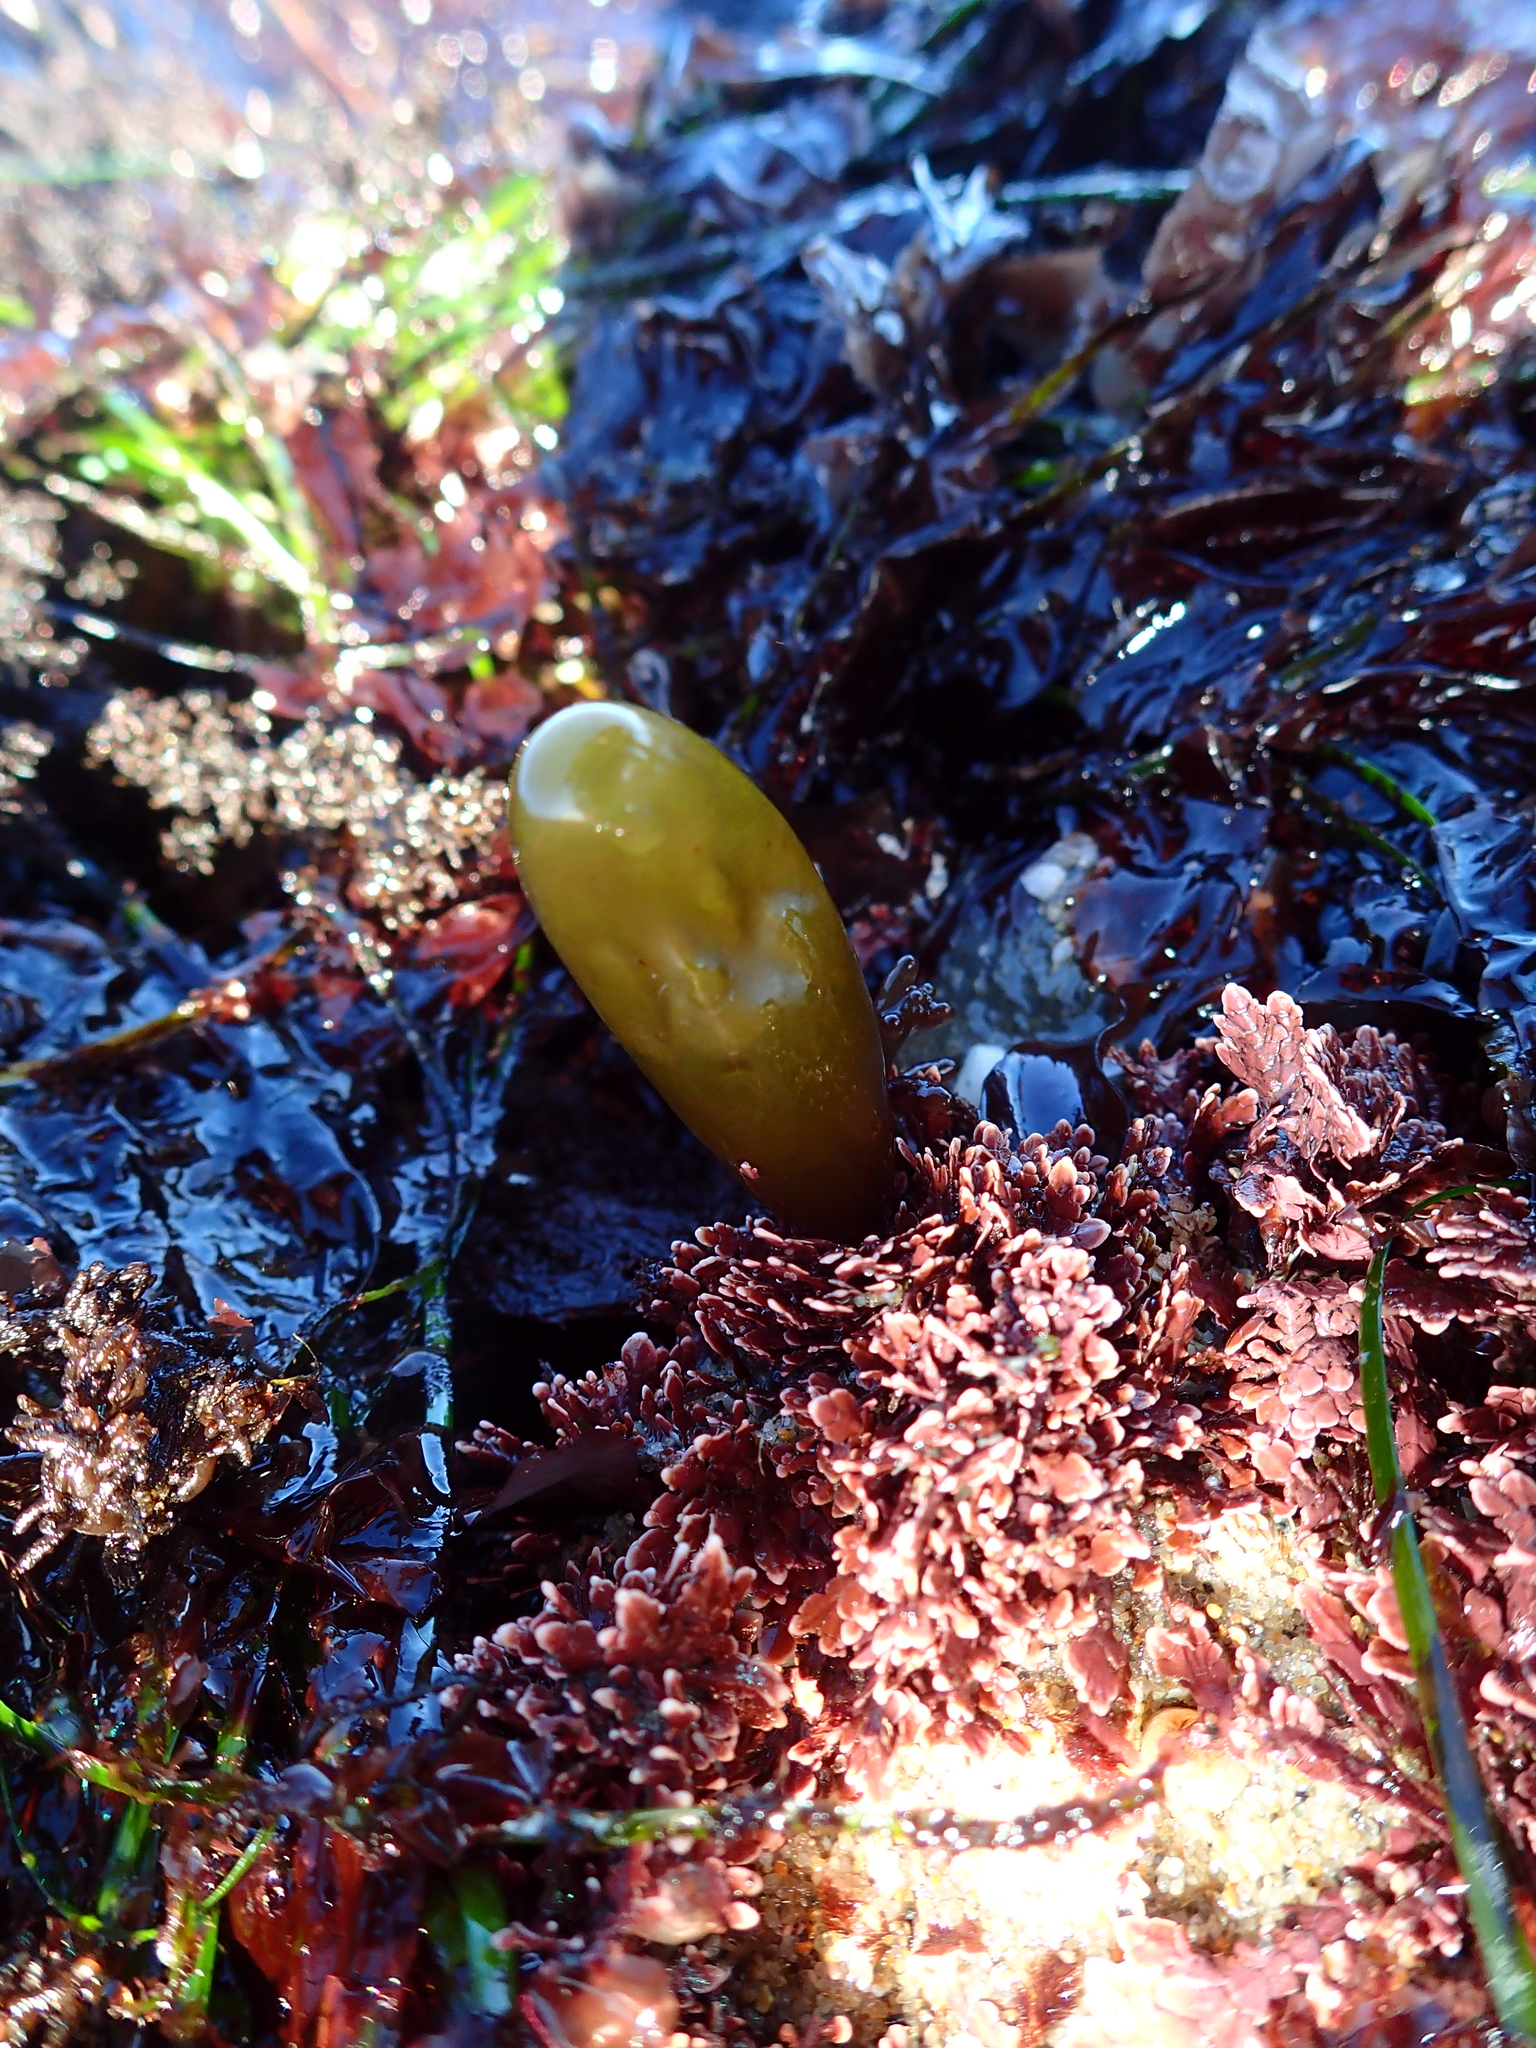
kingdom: Plantae
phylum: Rhodophyta
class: Florideophyceae
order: Palmariales
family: Palmariaceae
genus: Halosaccion
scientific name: Halosaccion glandiforme
